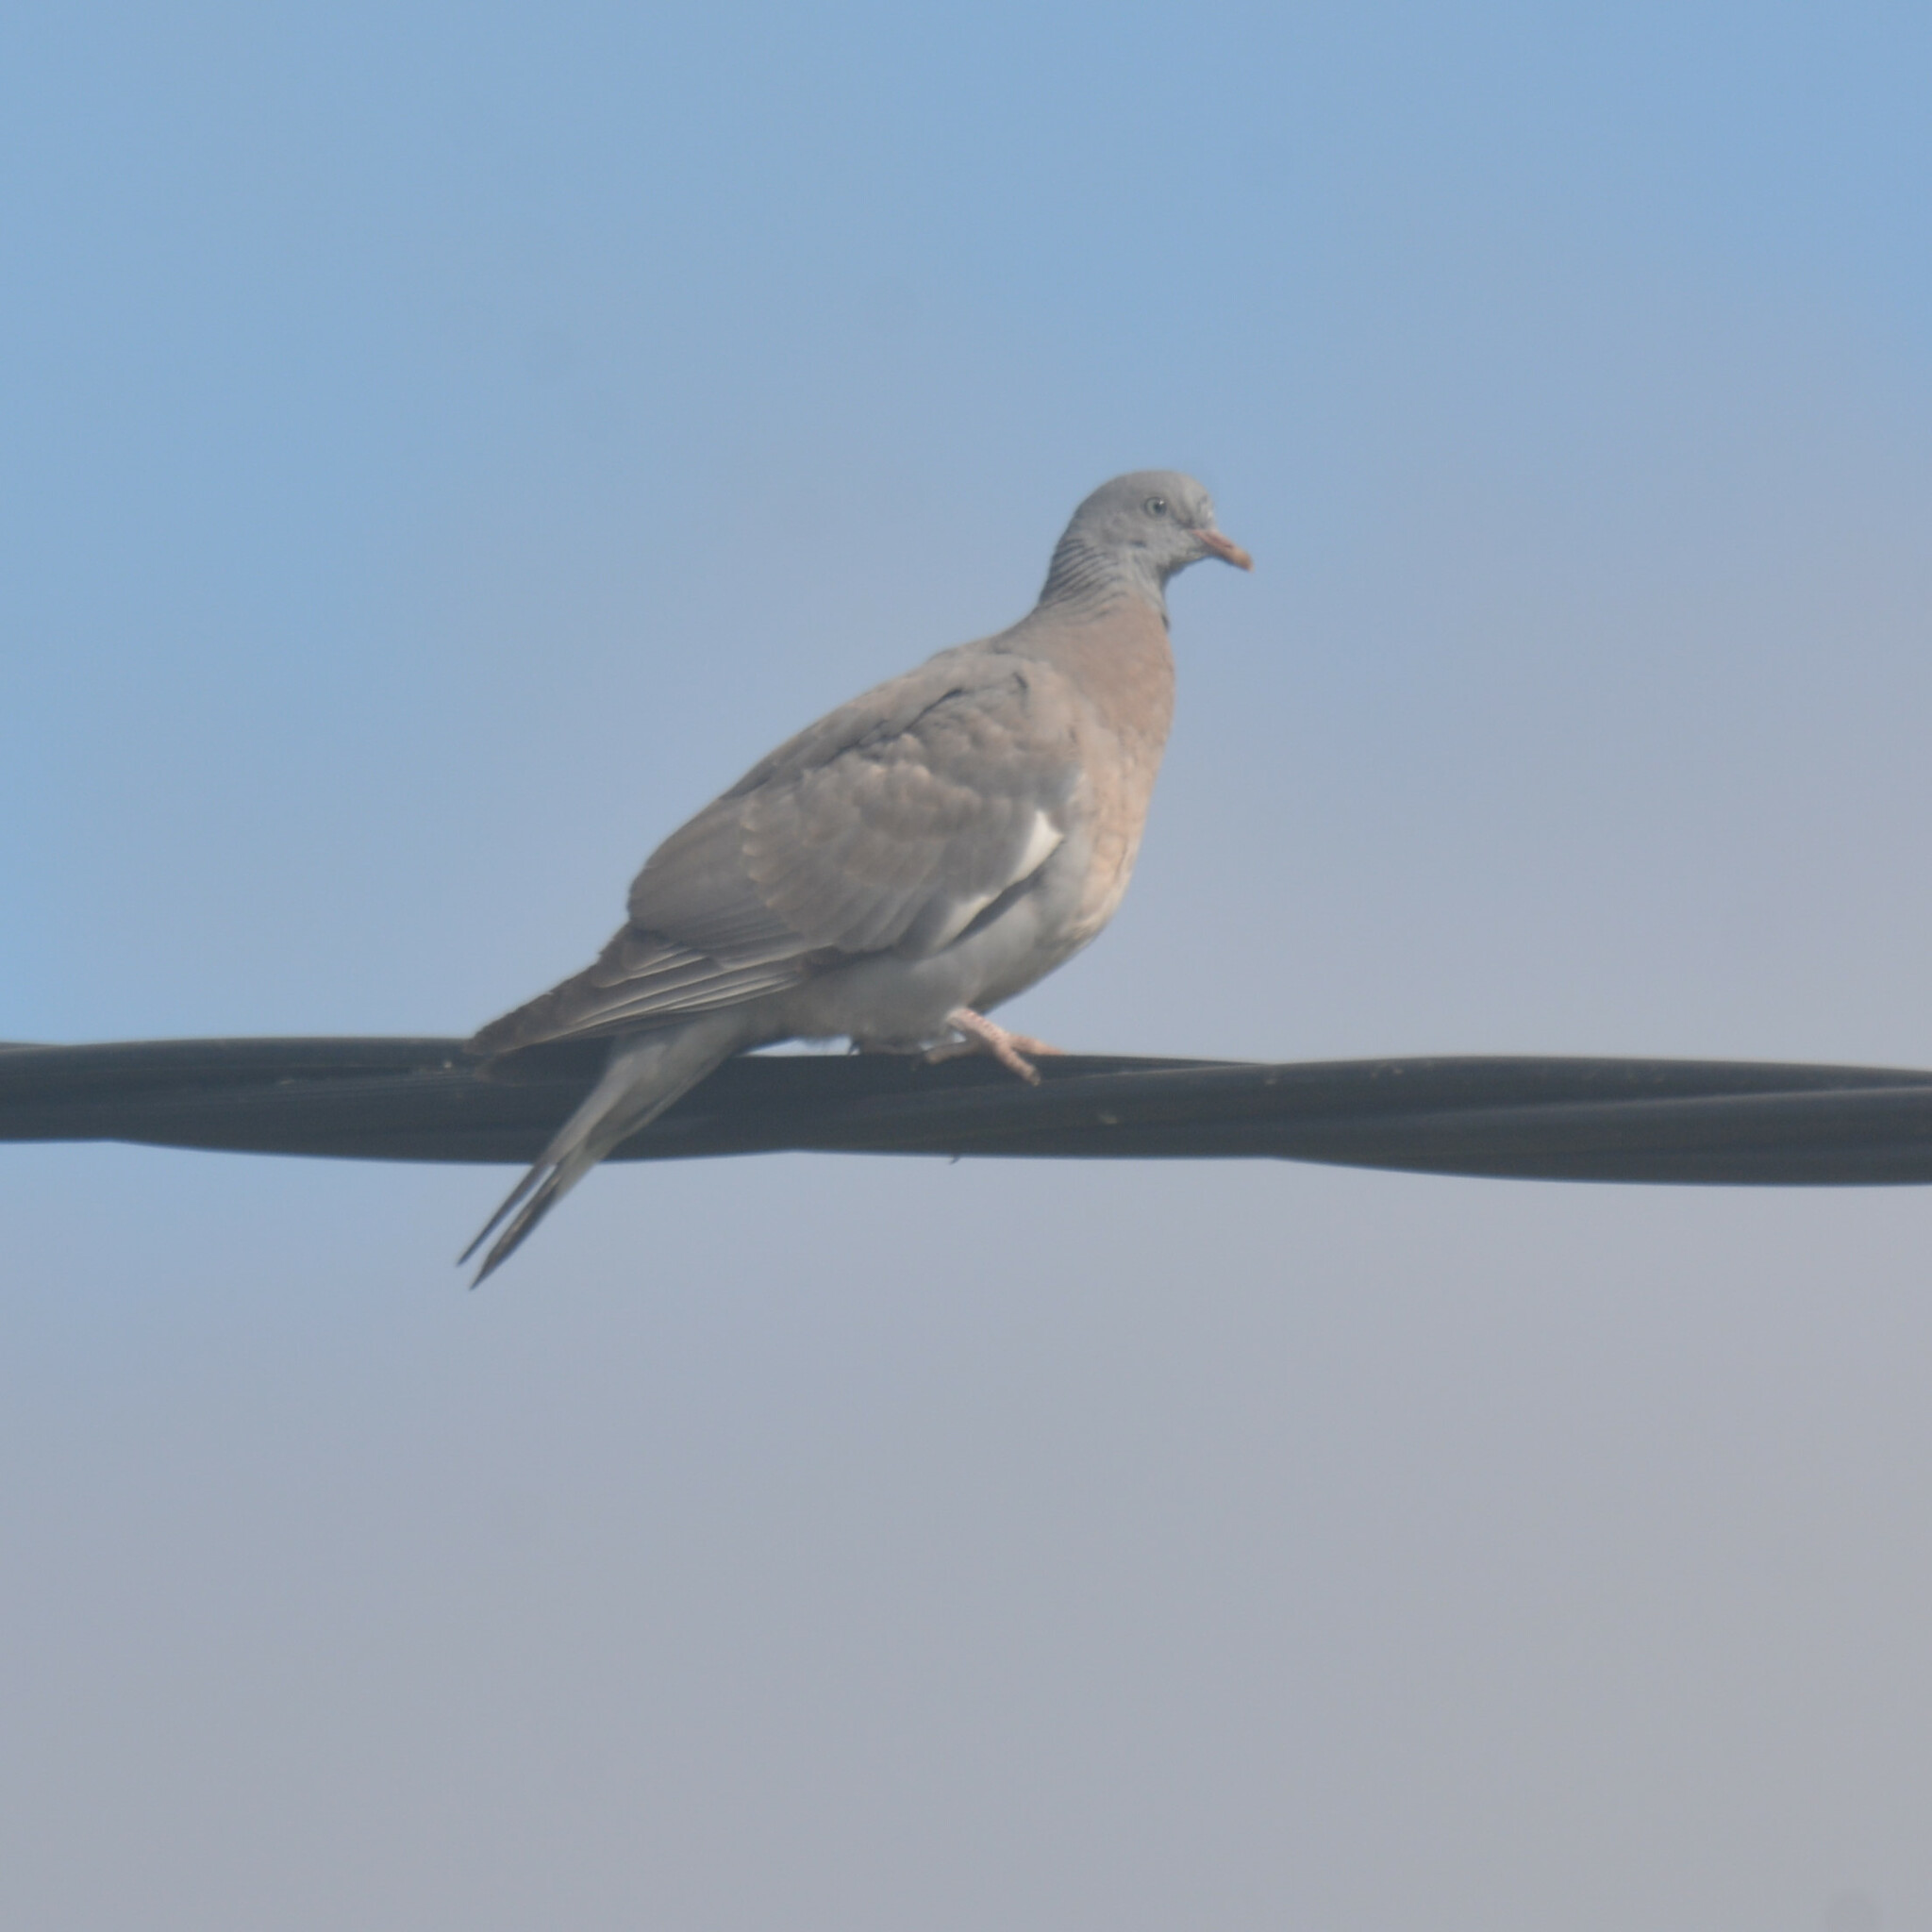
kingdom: Animalia
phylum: Chordata
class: Aves
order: Columbiformes
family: Columbidae
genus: Columba
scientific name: Columba palumbus
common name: Common wood pigeon
